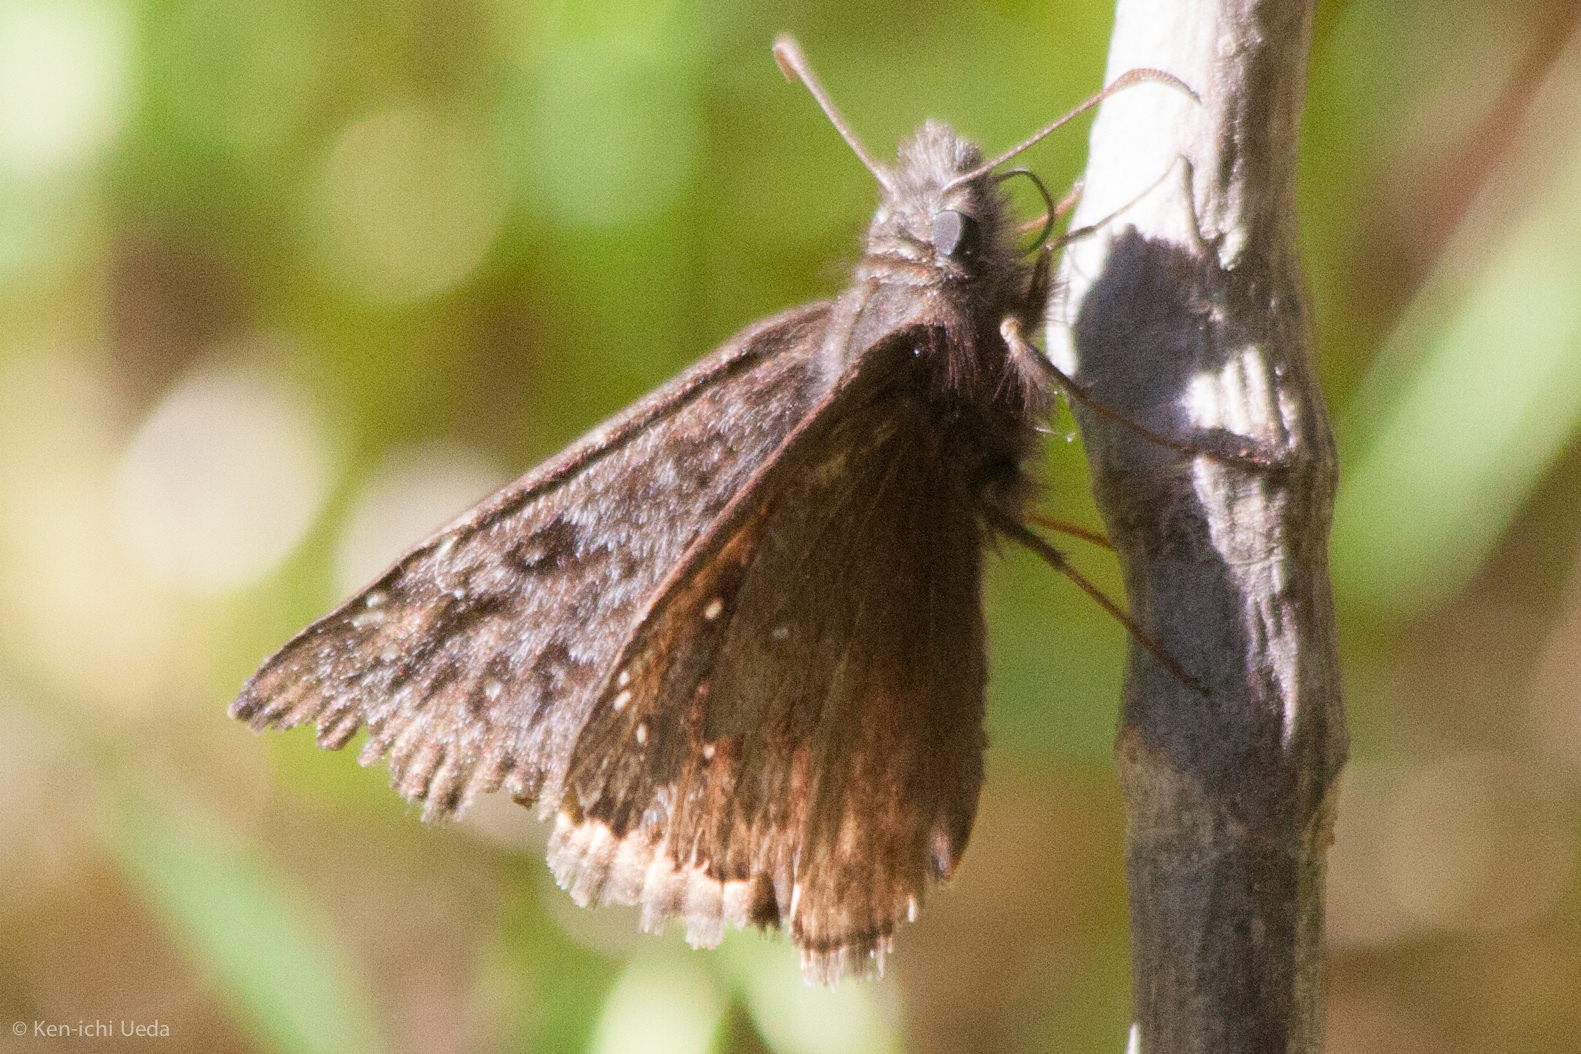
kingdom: Animalia
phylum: Arthropoda
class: Insecta
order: Lepidoptera
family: Hesperiidae
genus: Erynnis
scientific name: Erynnis propertius
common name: Propertius duskywing
